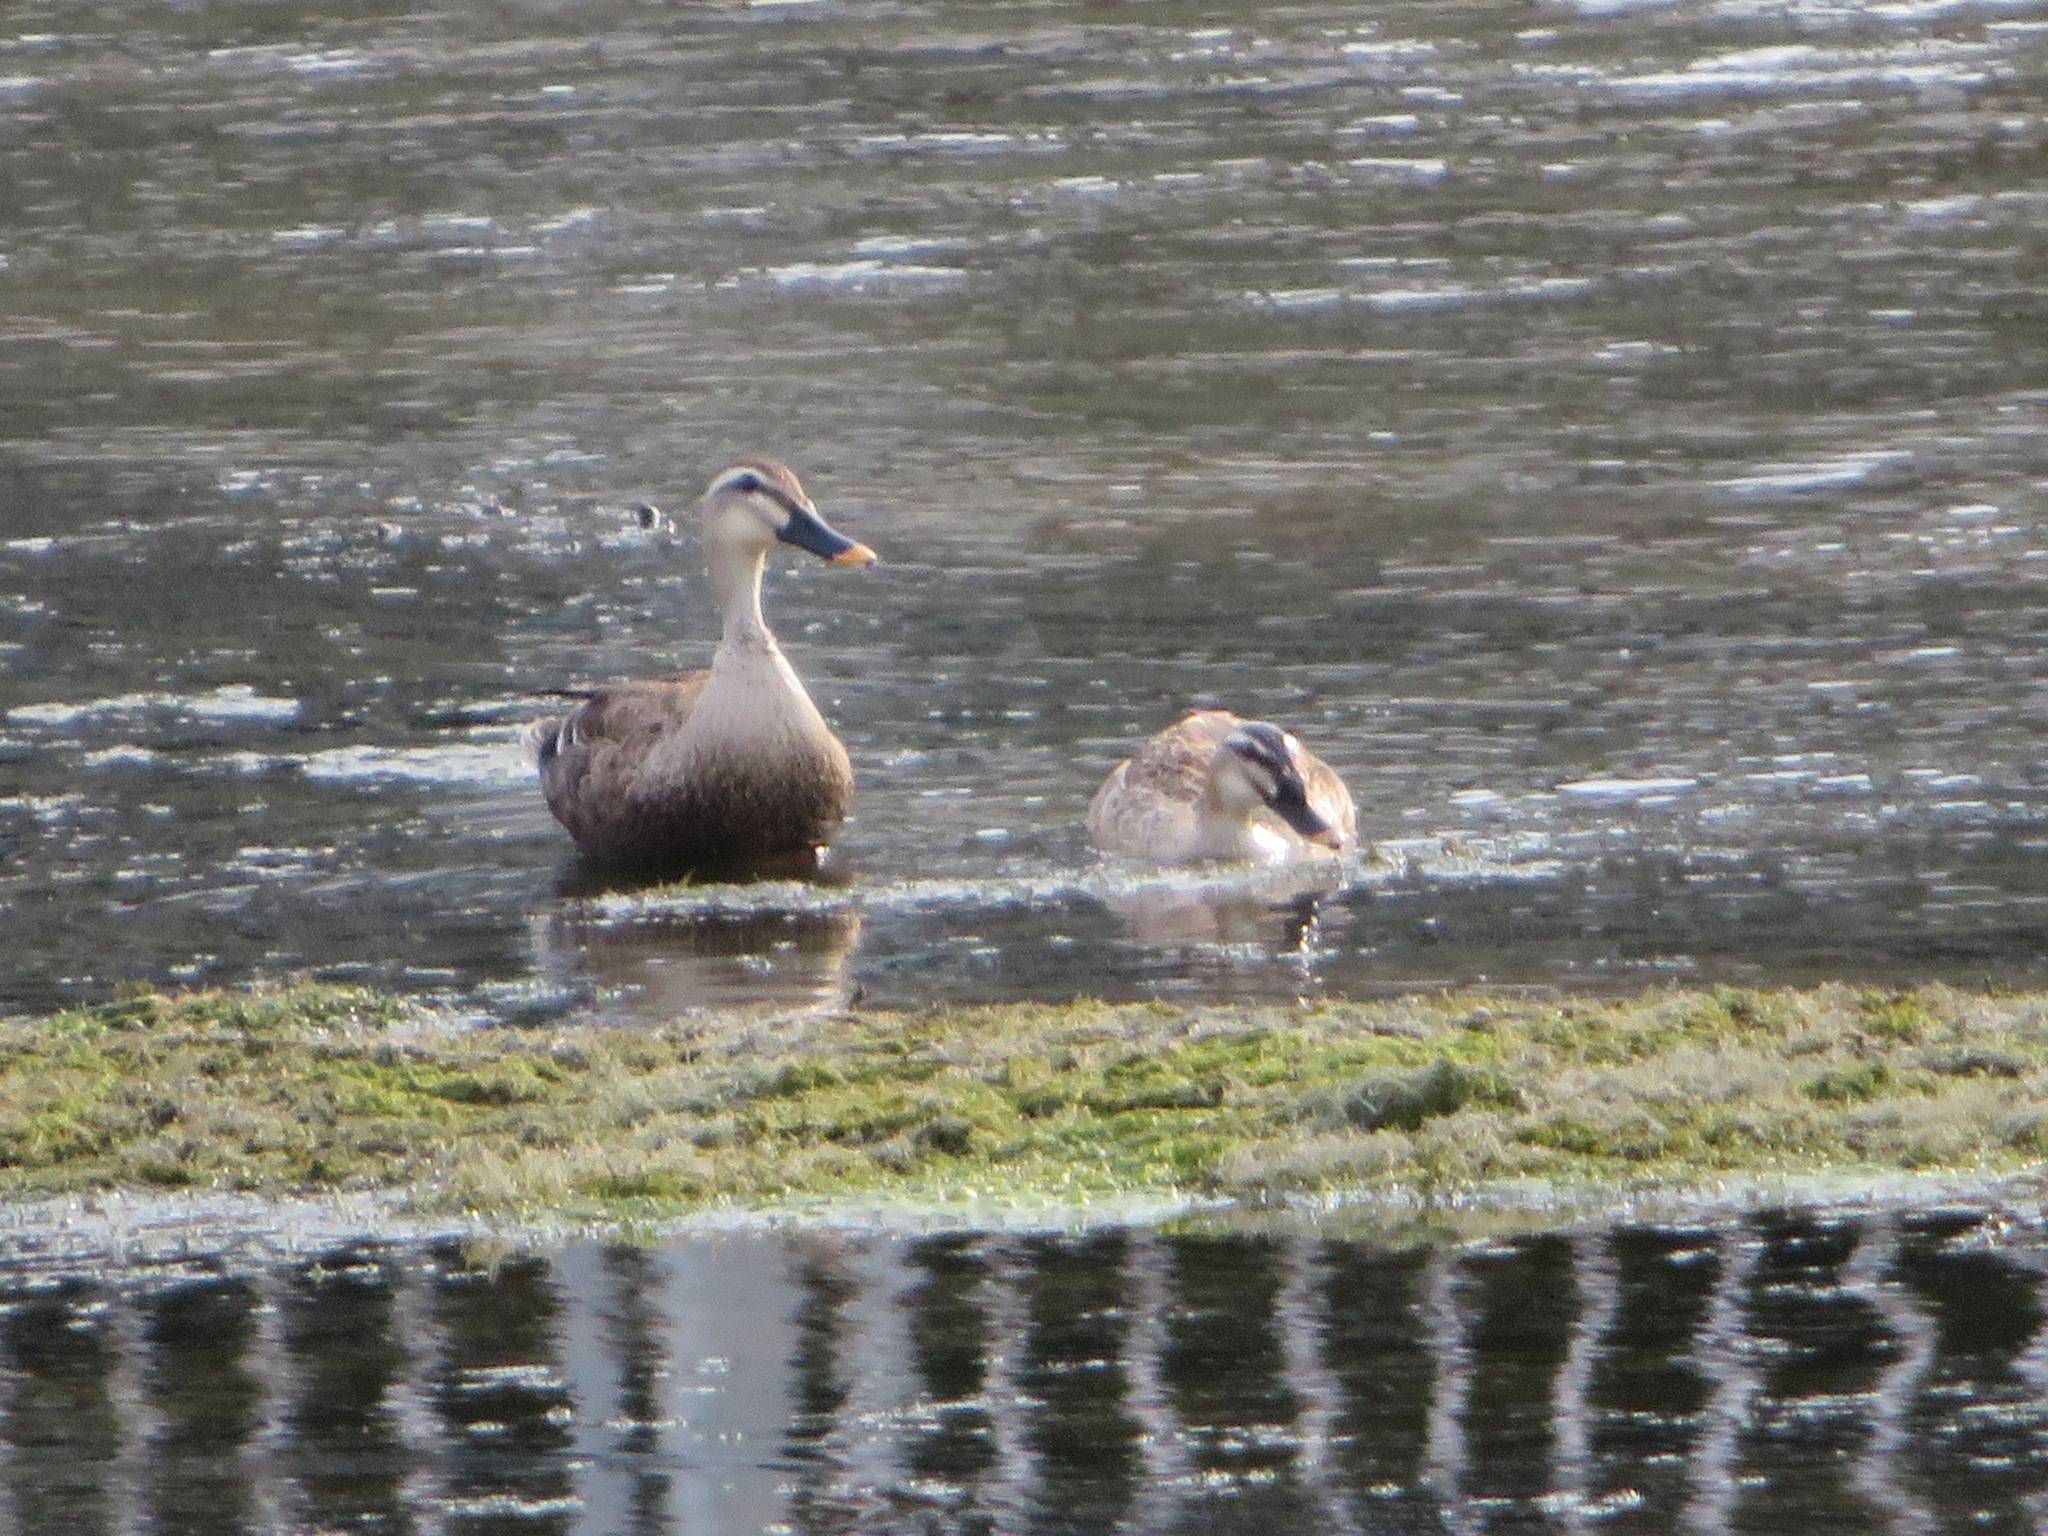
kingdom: Animalia
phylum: Chordata
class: Aves
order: Anseriformes
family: Anatidae
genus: Anas
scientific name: Anas zonorhyncha
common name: Eastern spot-billed duck
